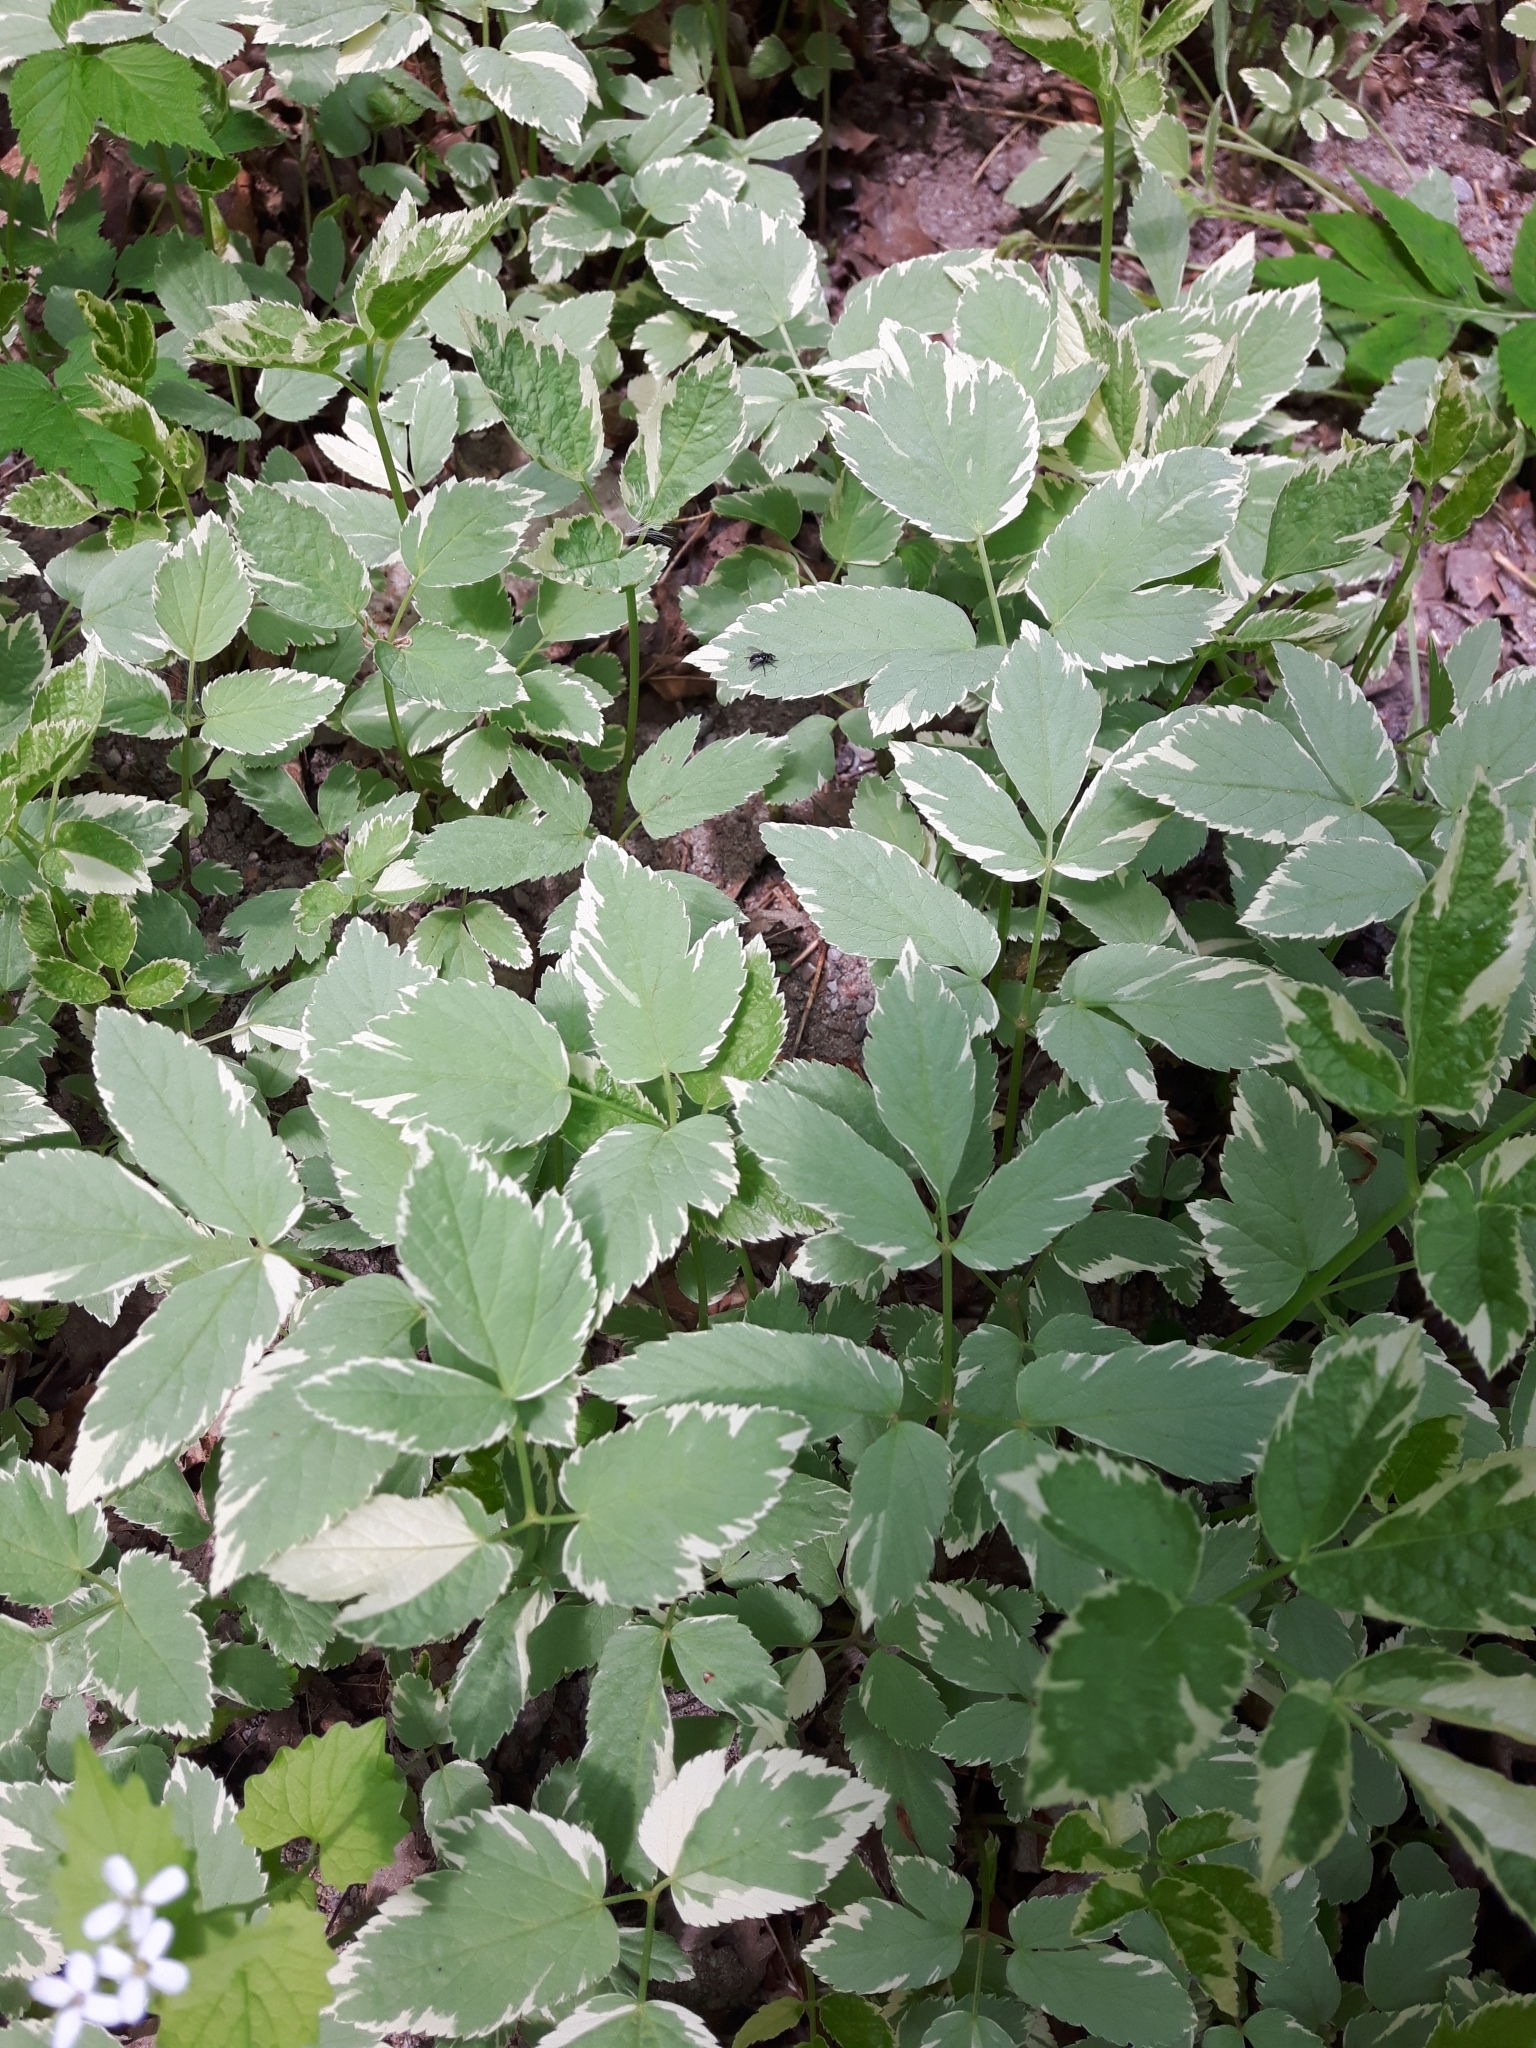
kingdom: Plantae
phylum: Tracheophyta
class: Magnoliopsida
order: Apiales
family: Apiaceae
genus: Aegopodium
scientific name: Aegopodium podagraria
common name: Ground-elder
